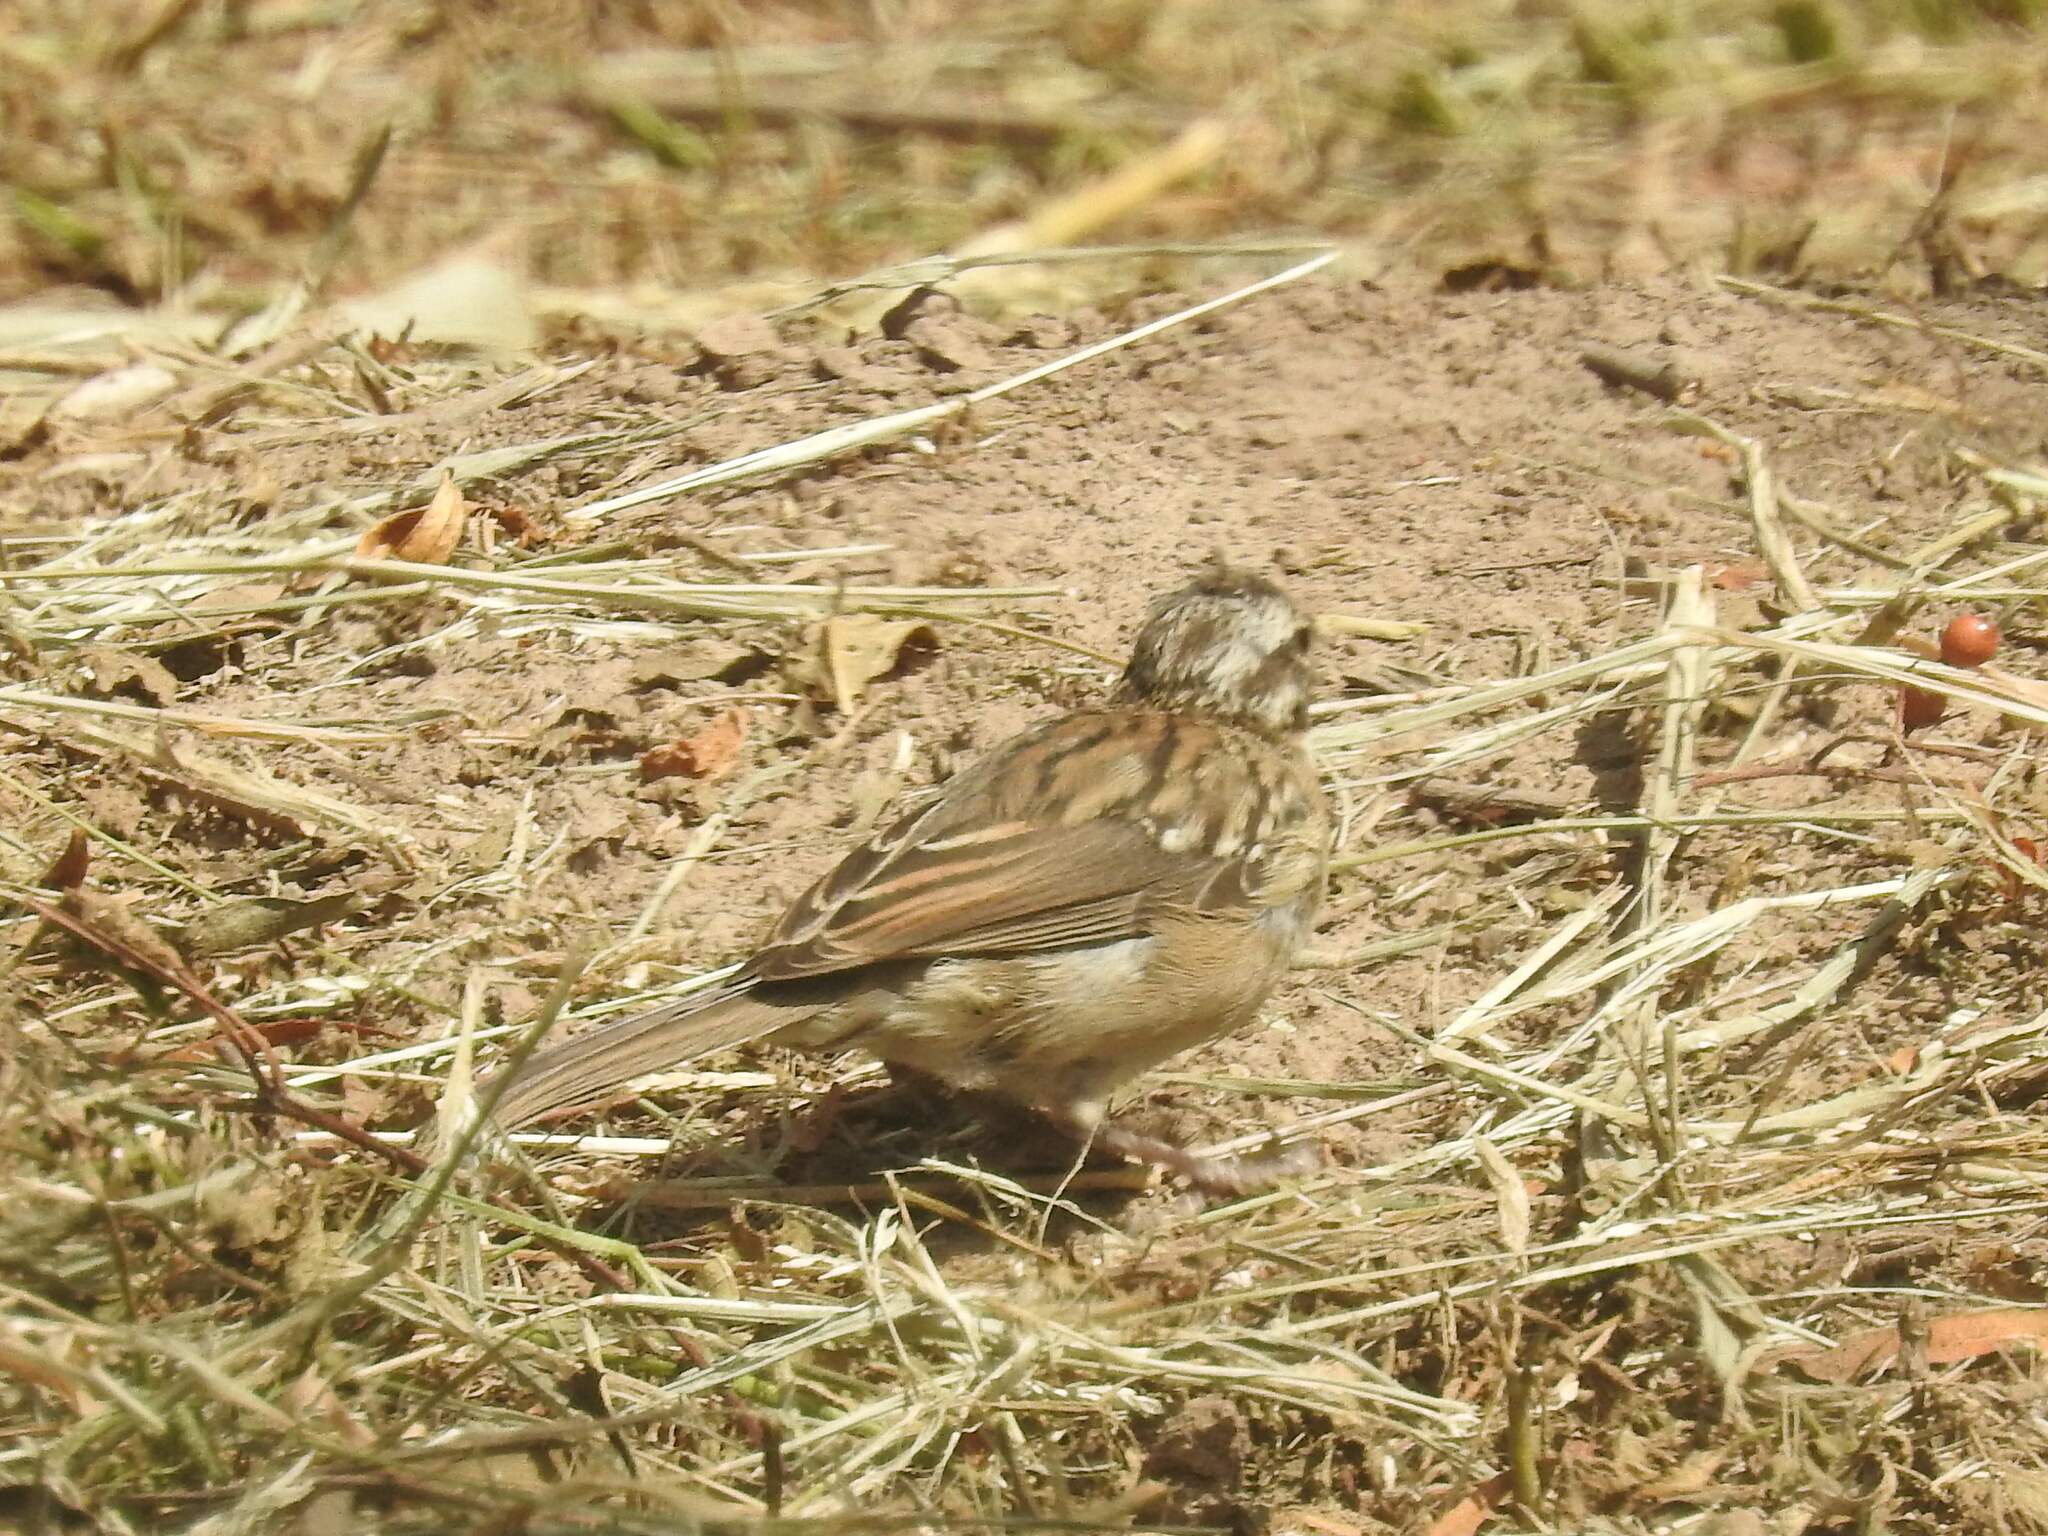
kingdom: Animalia
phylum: Chordata
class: Aves
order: Passeriformes
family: Passerellidae
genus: Zonotrichia
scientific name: Zonotrichia capensis
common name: Rufous-collared sparrow
